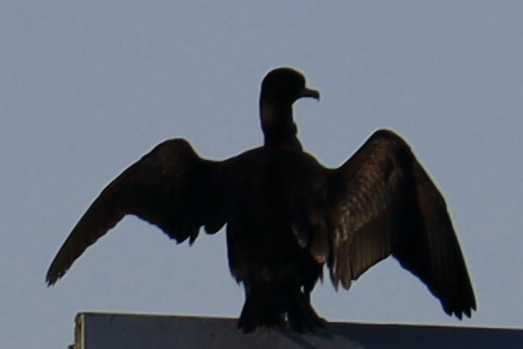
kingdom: Animalia
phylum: Chordata
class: Aves
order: Suliformes
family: Phalacrocoracidae
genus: Phalacrocorax
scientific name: Phalacrocorax auritus
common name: Double-crested cormorant
